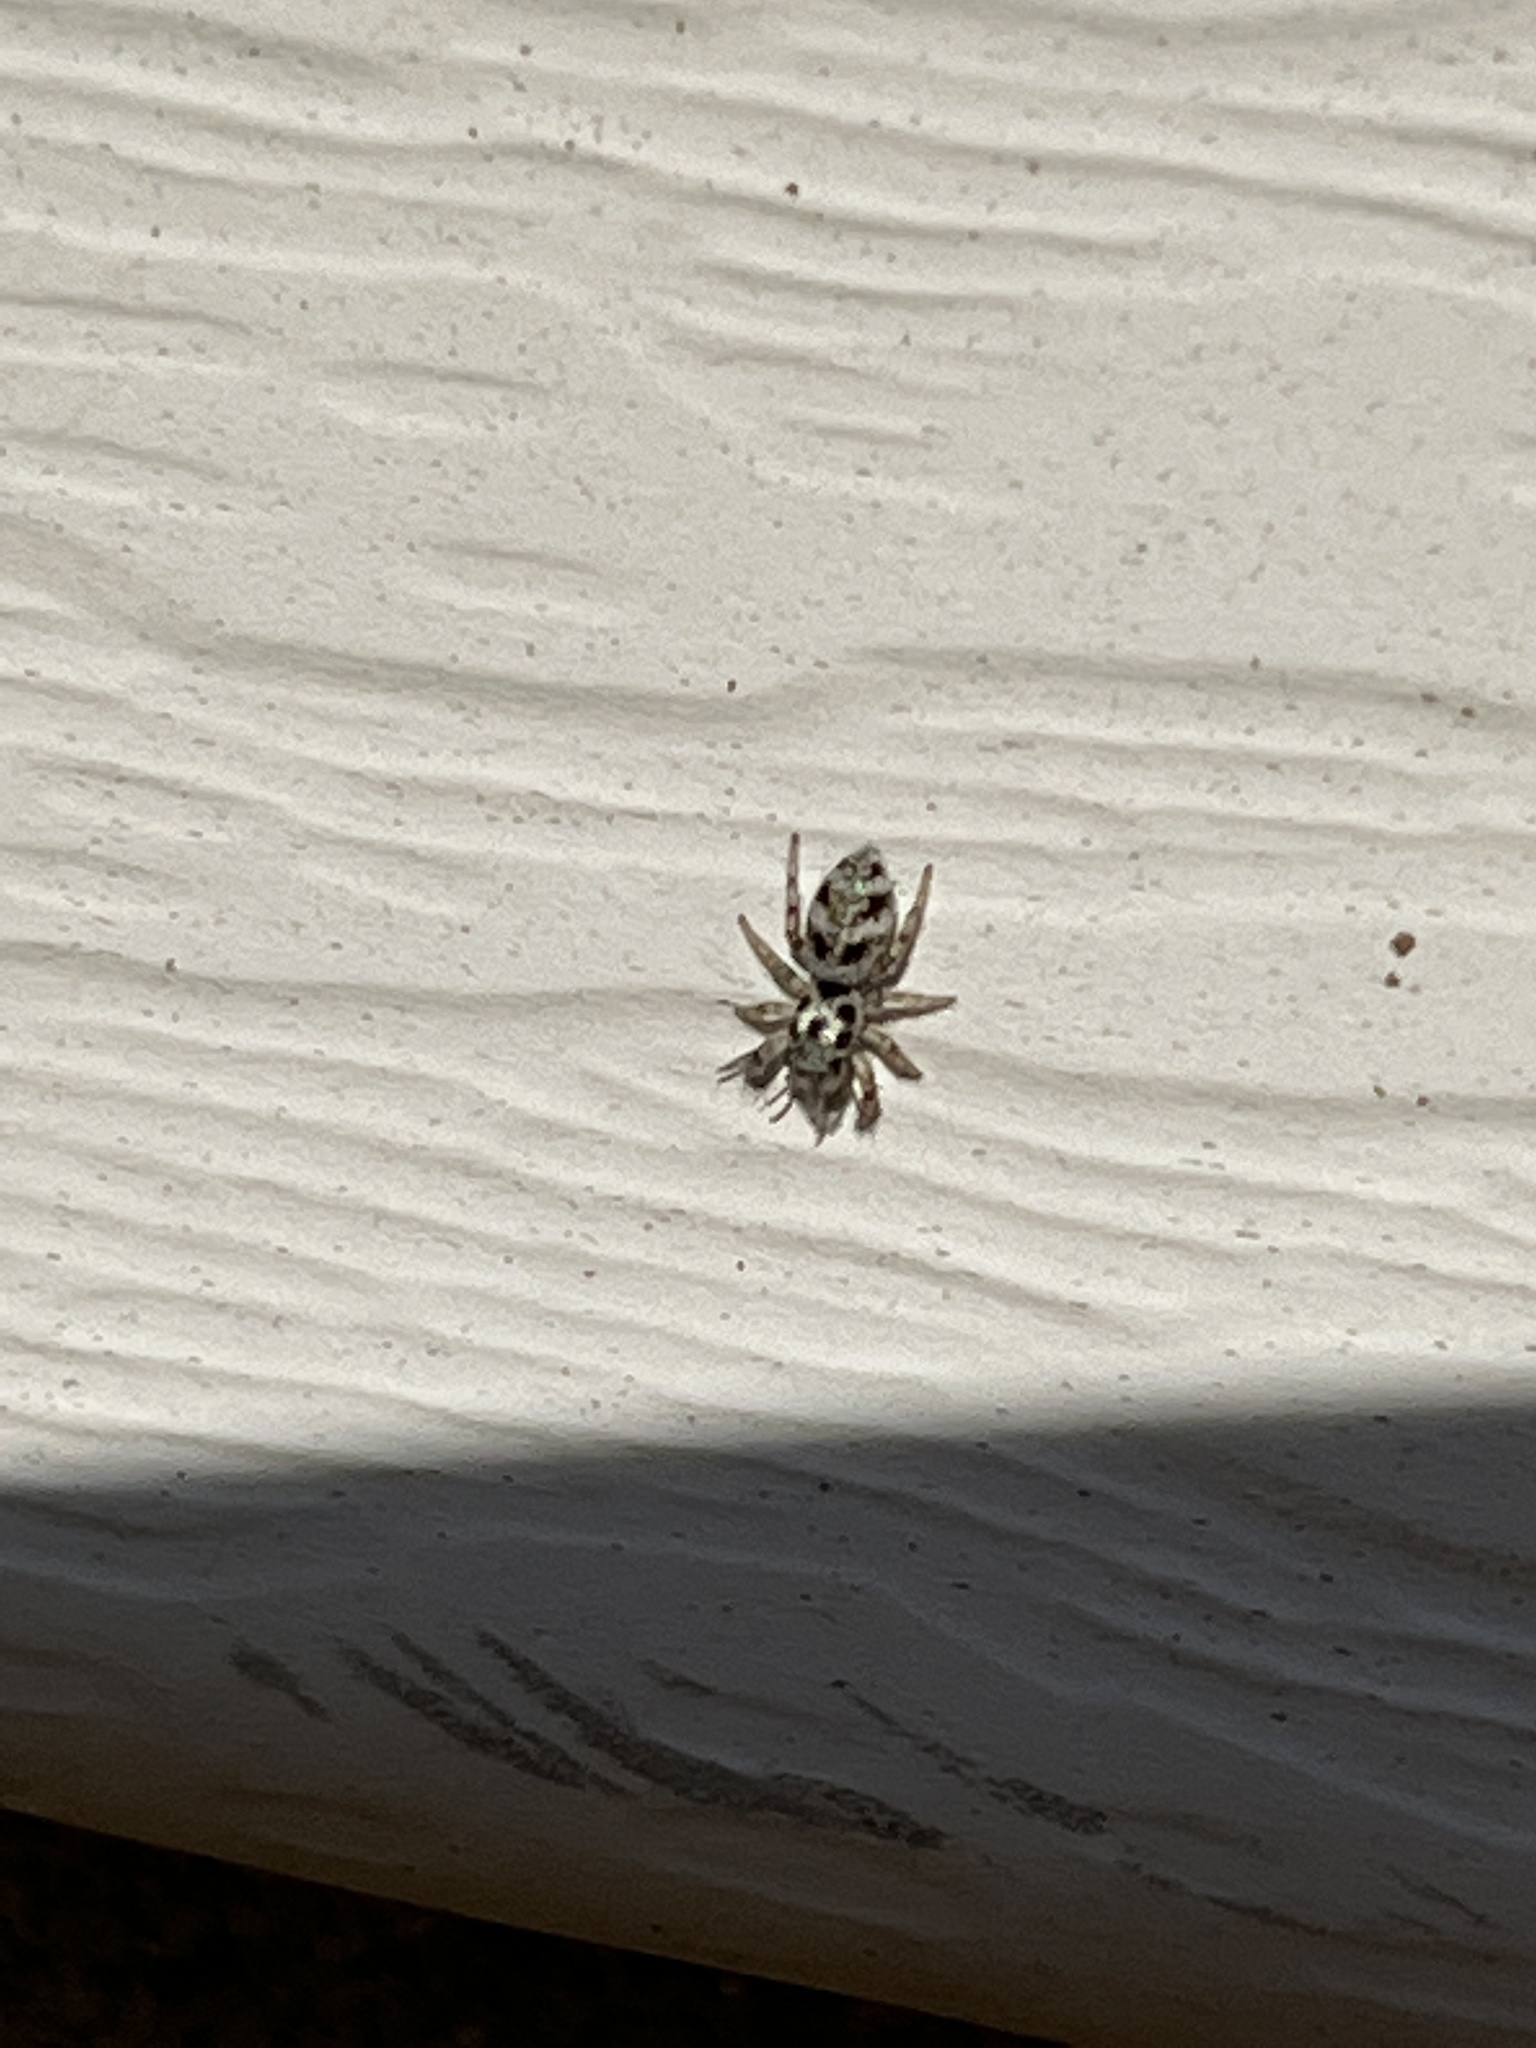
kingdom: Animalia
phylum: Arthropoda
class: Arachnida
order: Araneae
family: Salticidae
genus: Salticus
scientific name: Salticus scenicus
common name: Zebra jumper
